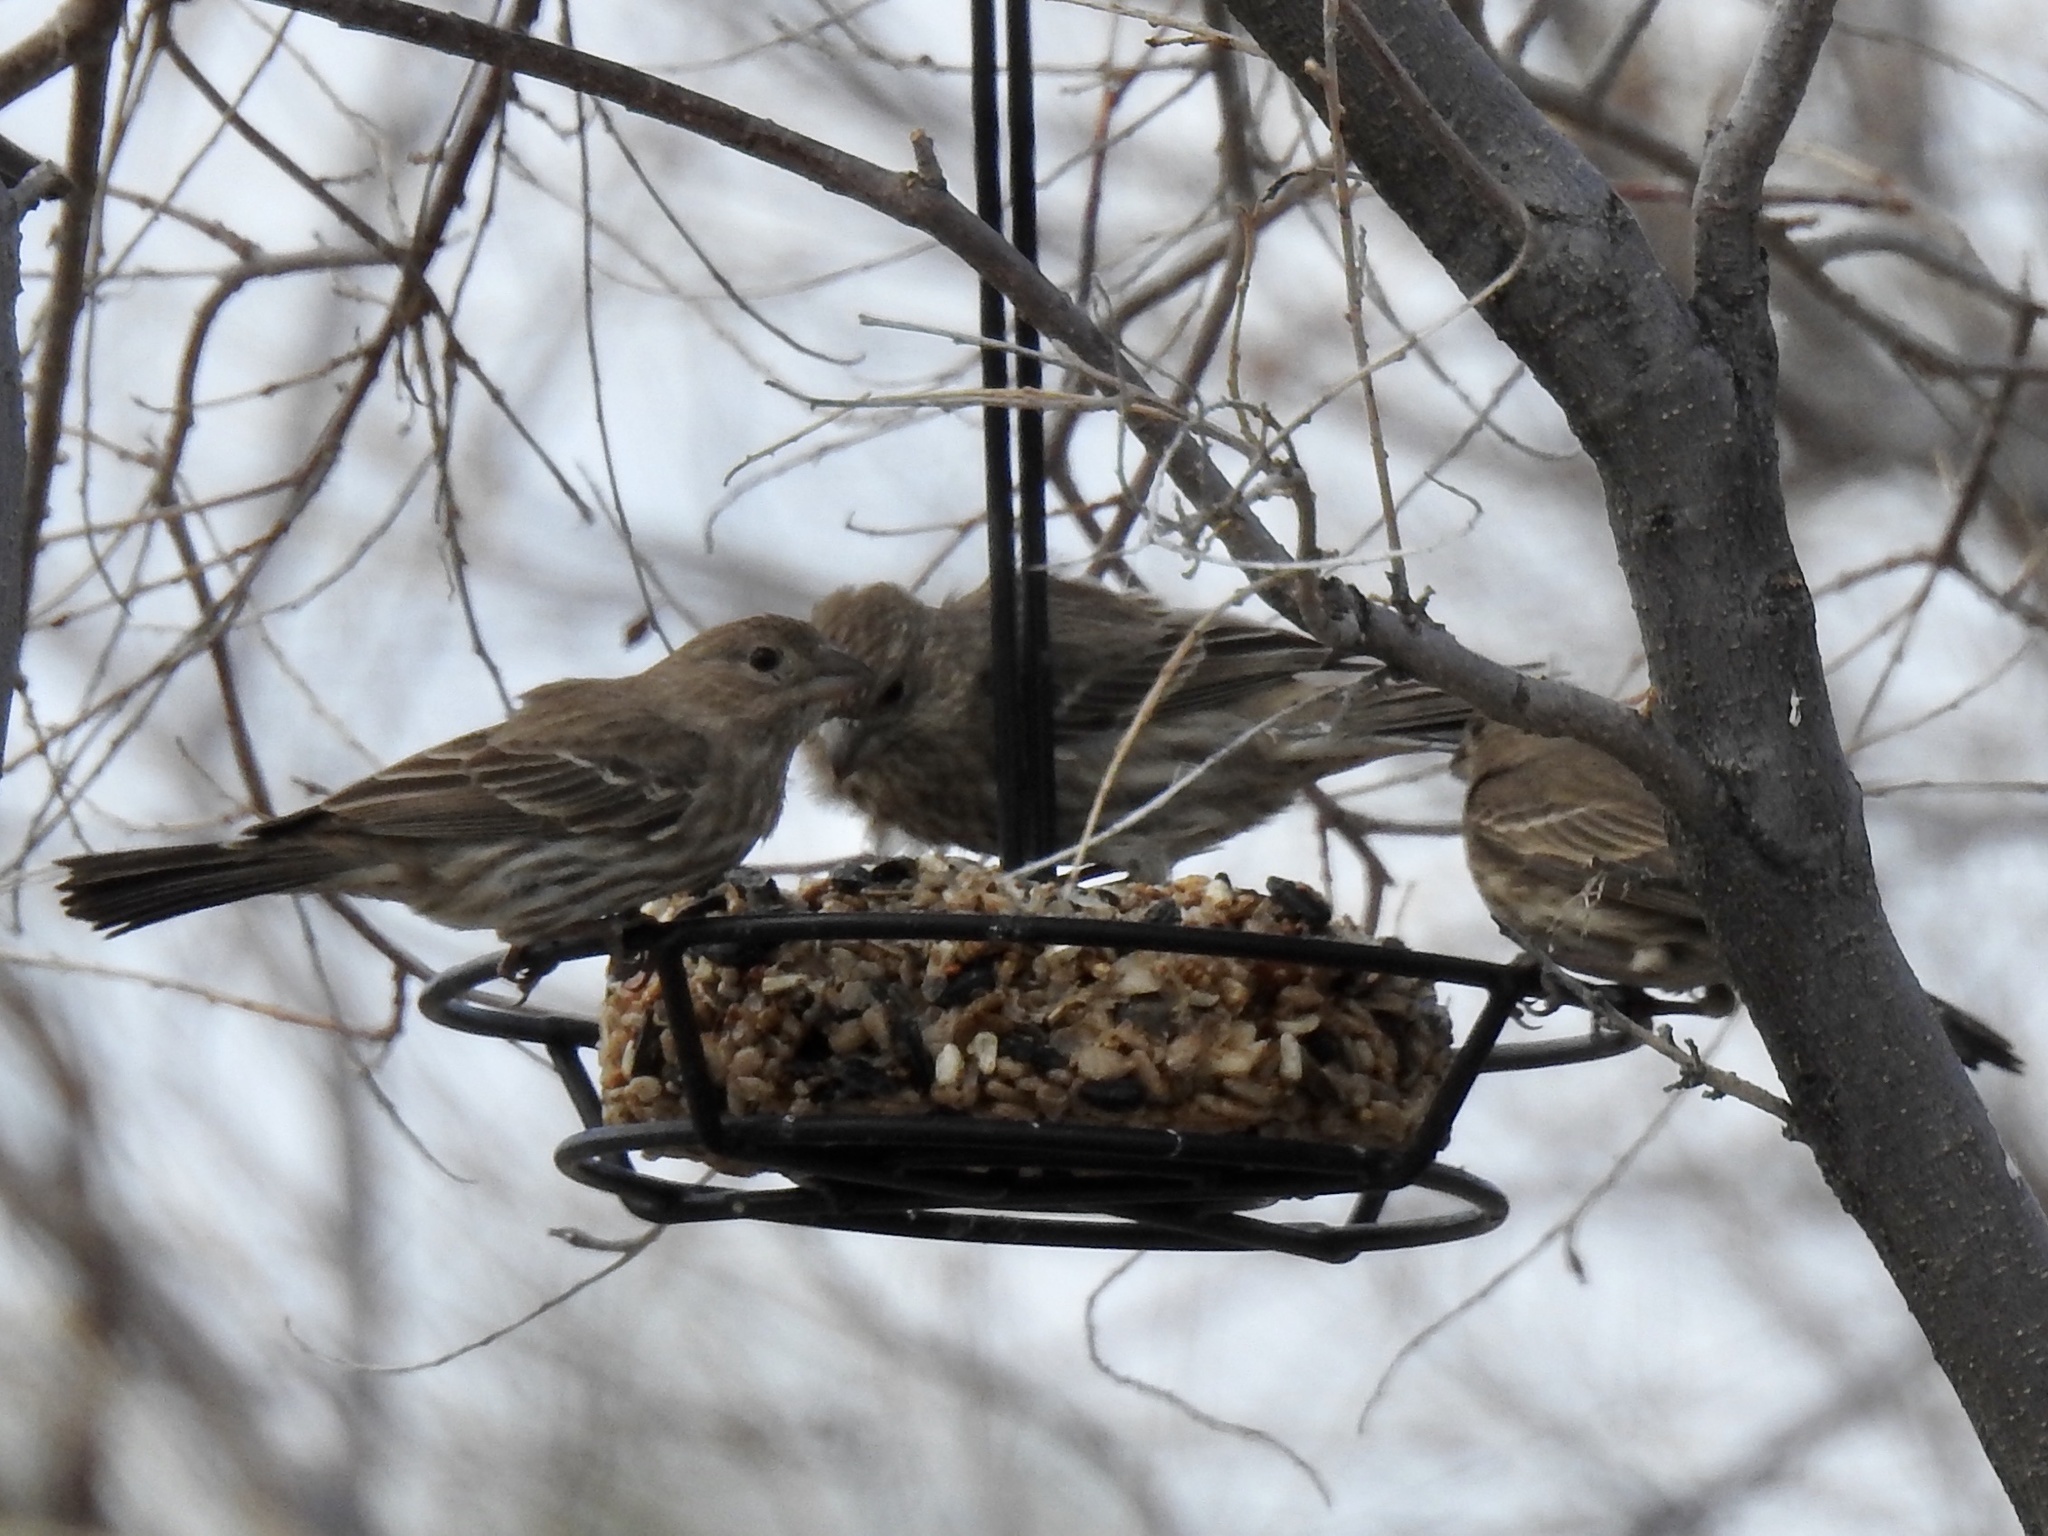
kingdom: Animalia
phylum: Chordata
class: Aves
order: Passeriformes
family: Fringillidae
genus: Haemorhous
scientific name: Haemorhous mexicanus
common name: House finch
